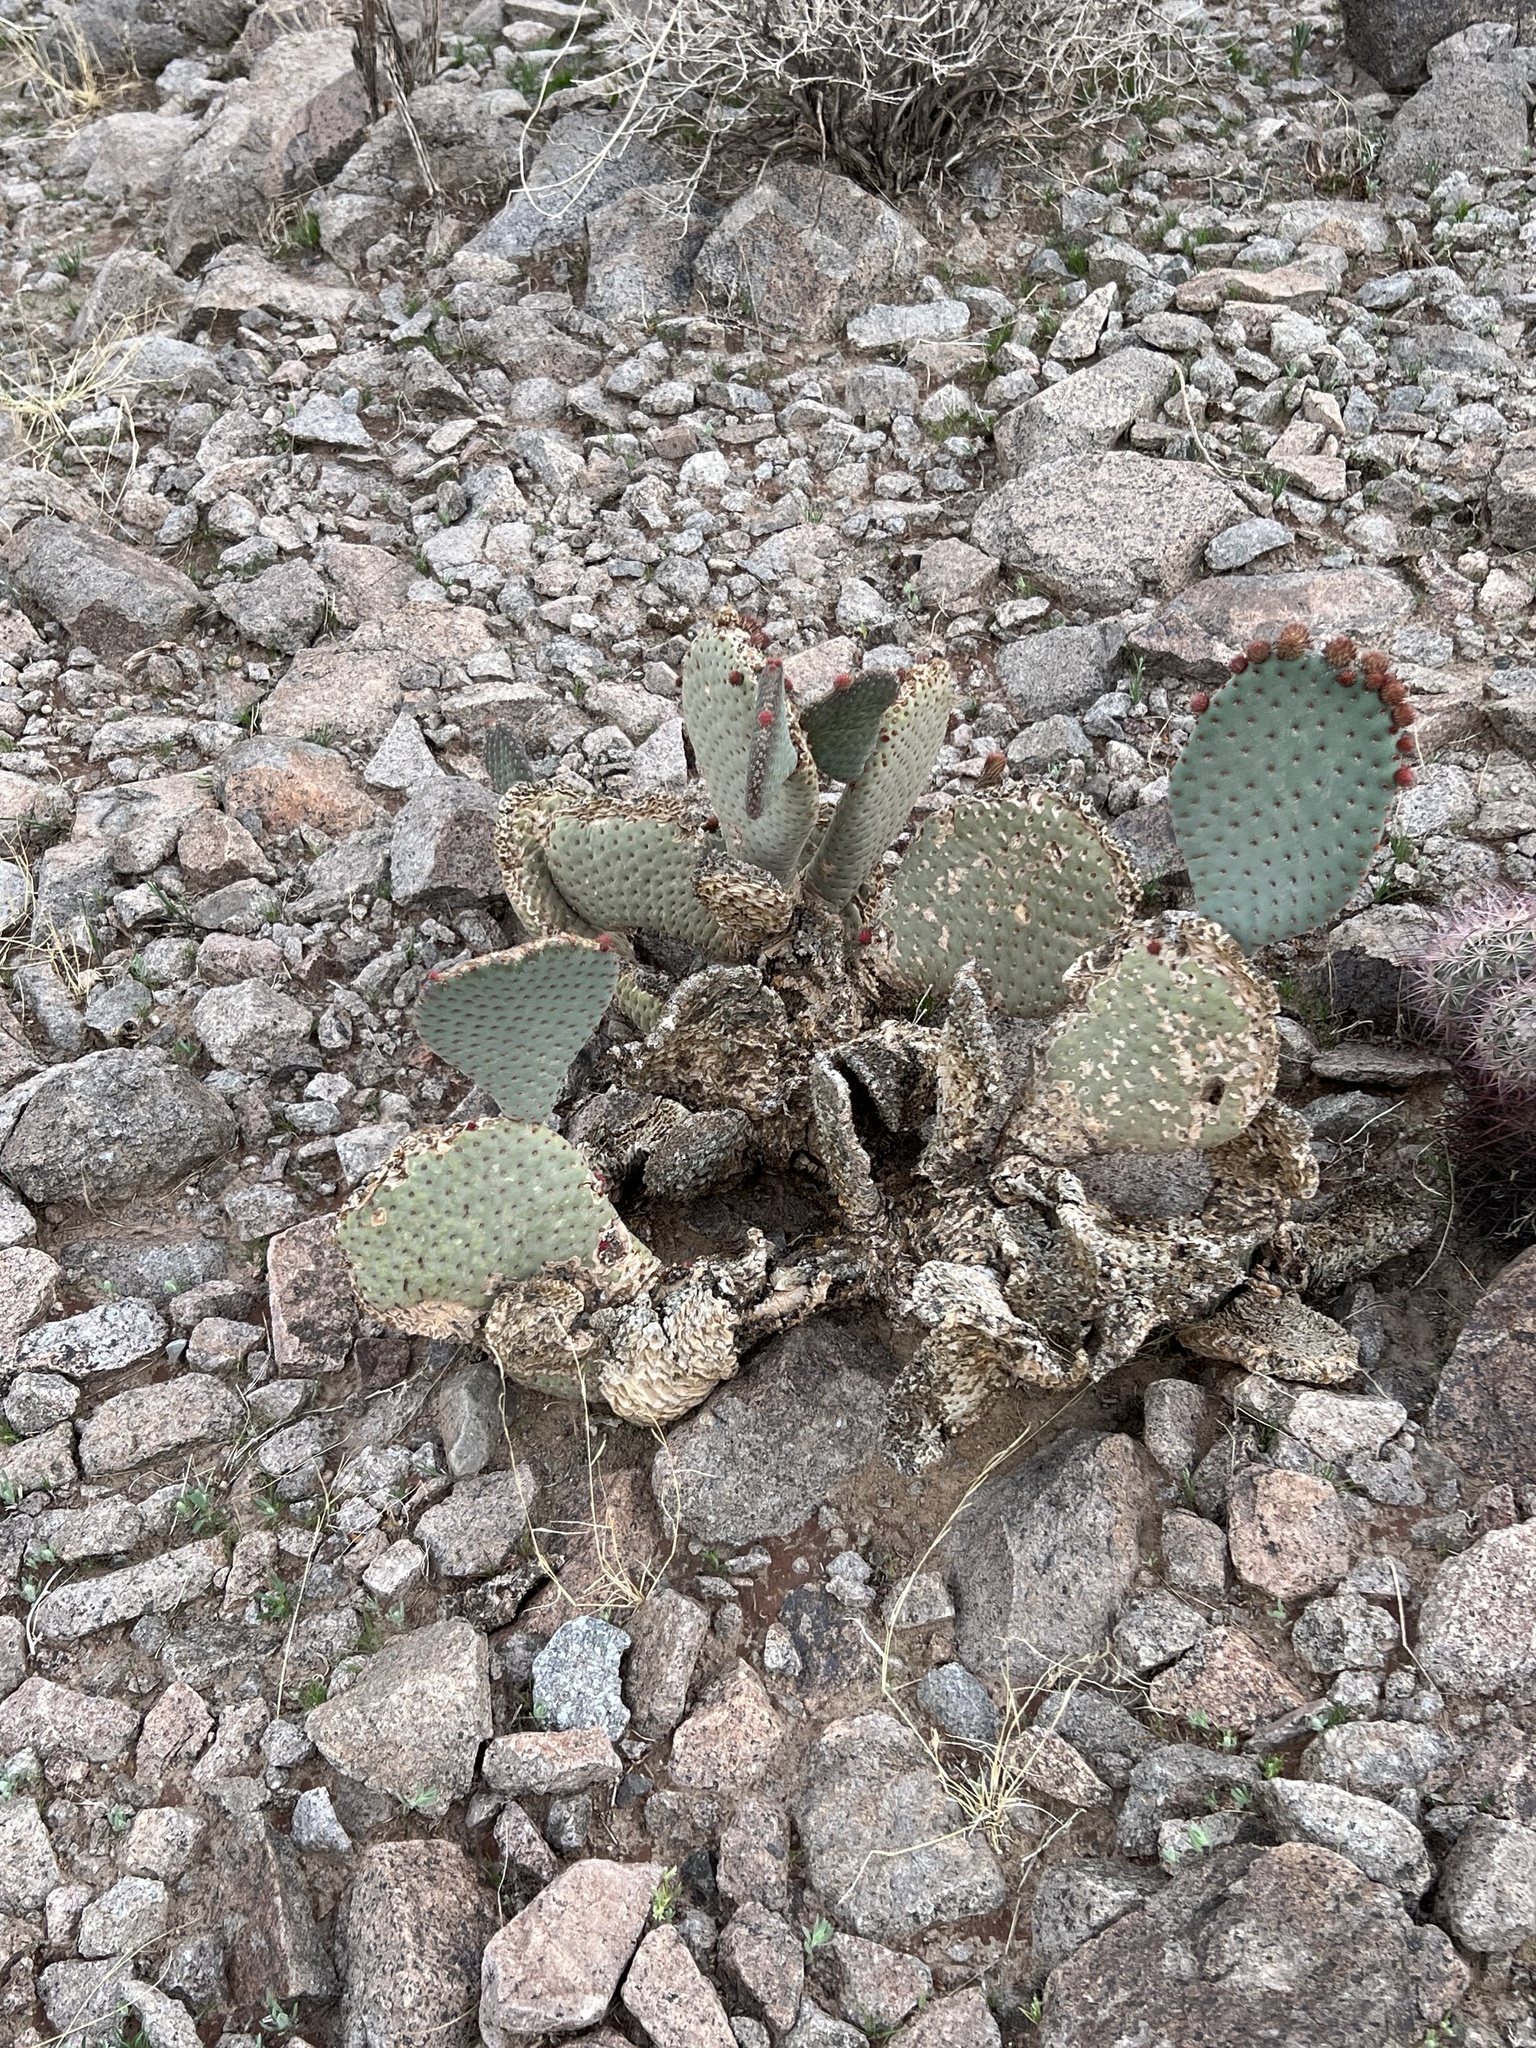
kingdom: Plantae
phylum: Tracheophyta
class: Magnoliopsida
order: Caryophyllales
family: Cactaceae
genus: Opuntia
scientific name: Opuntia basilaris
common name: Beavertail prickly-pear
